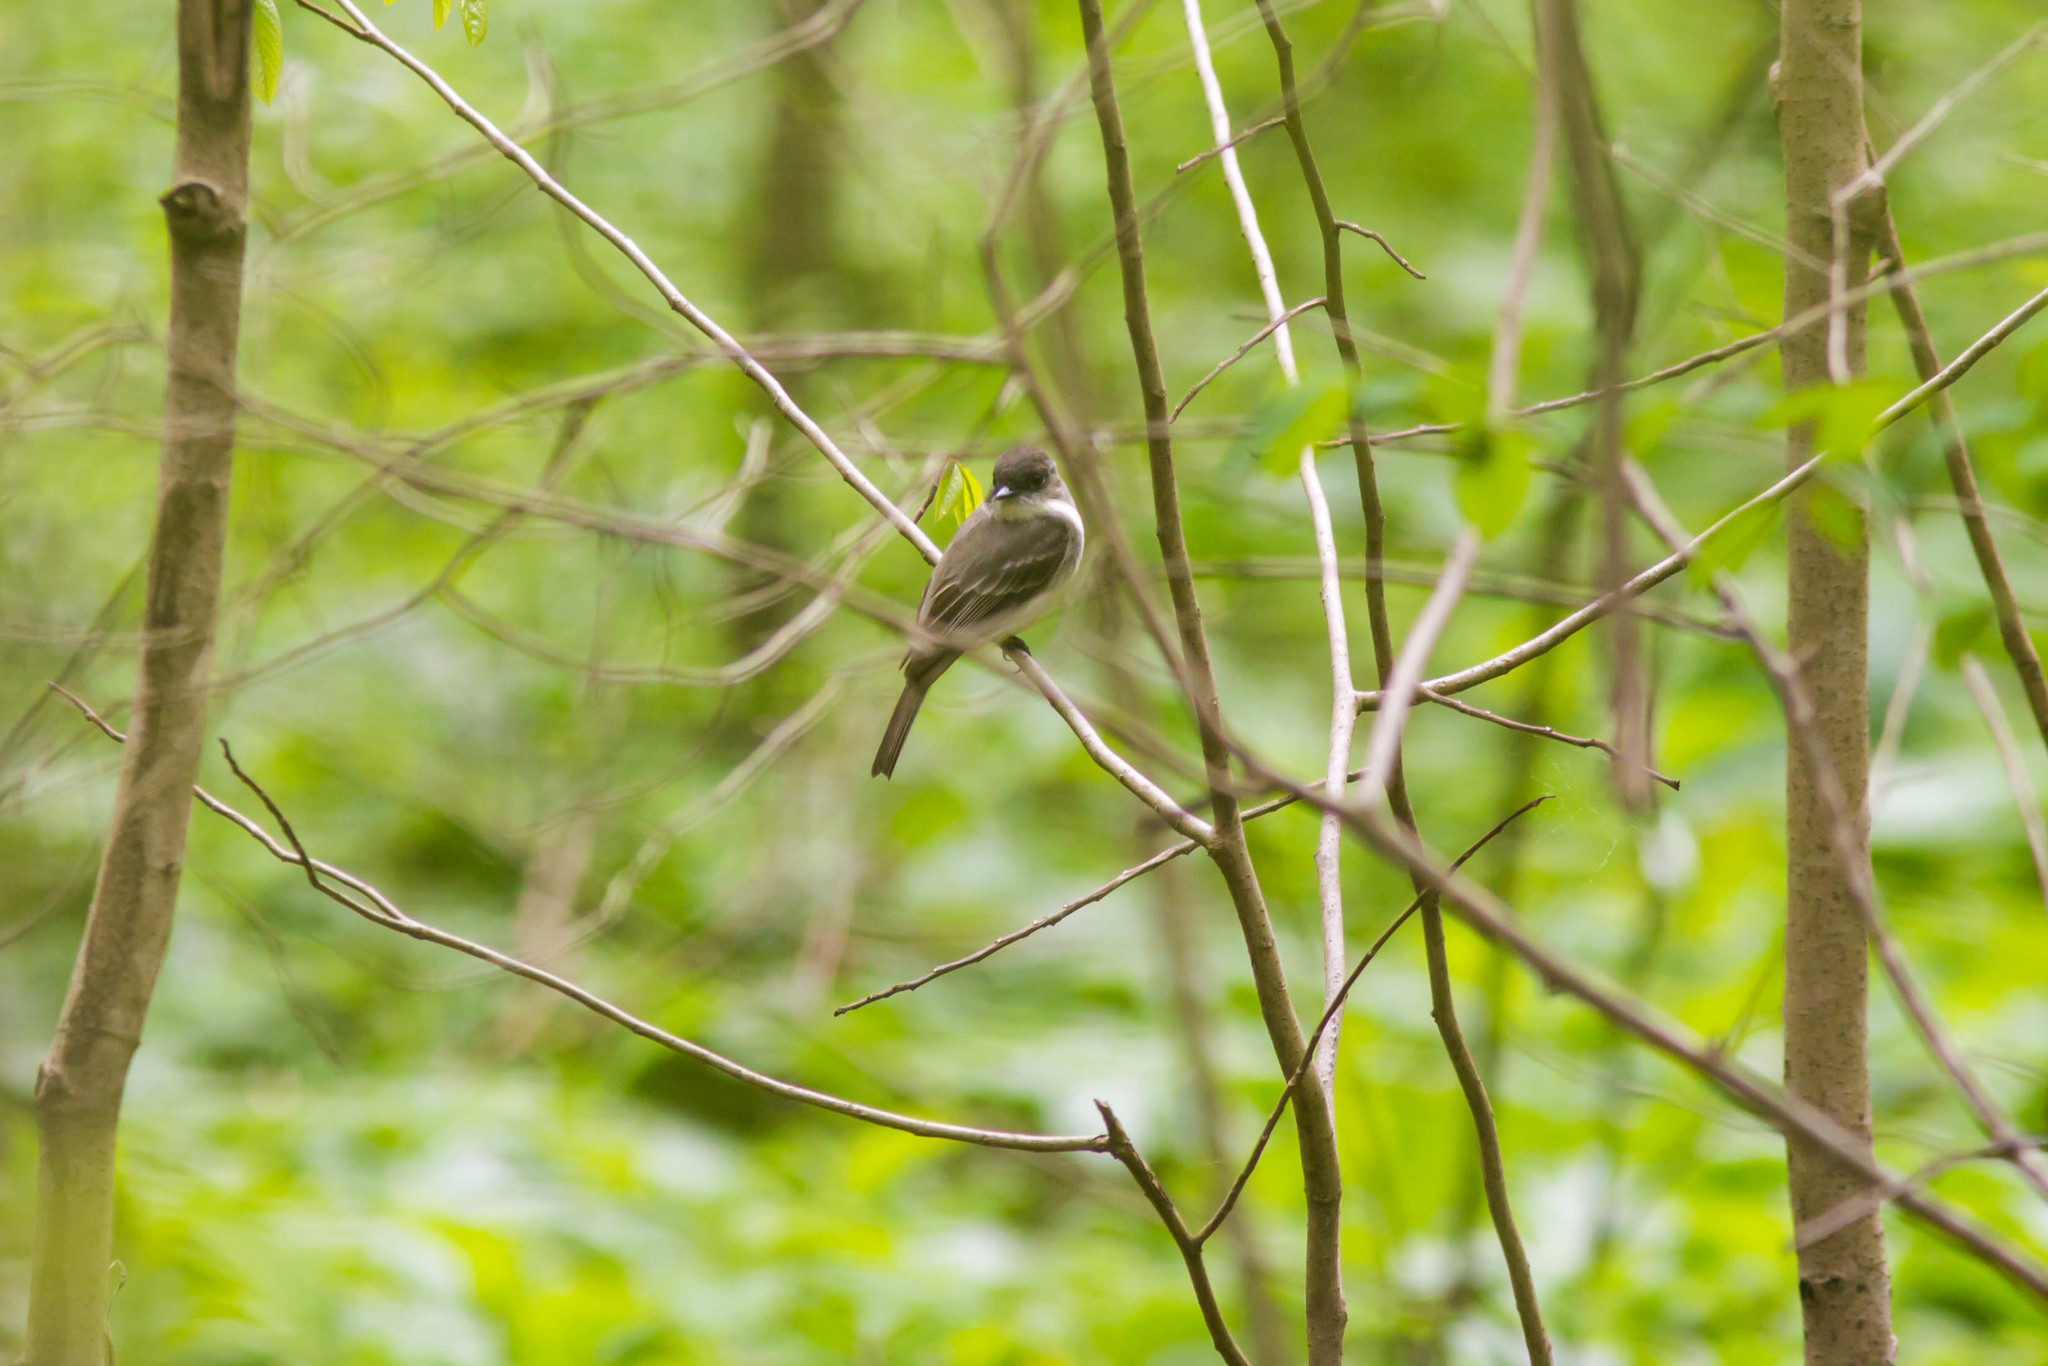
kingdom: Animalia
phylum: Chordata
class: Aves
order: Passeriformes
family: Tyrannidae
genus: Sayornis
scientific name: Sayornis phoebe
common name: Eastern phoebe
